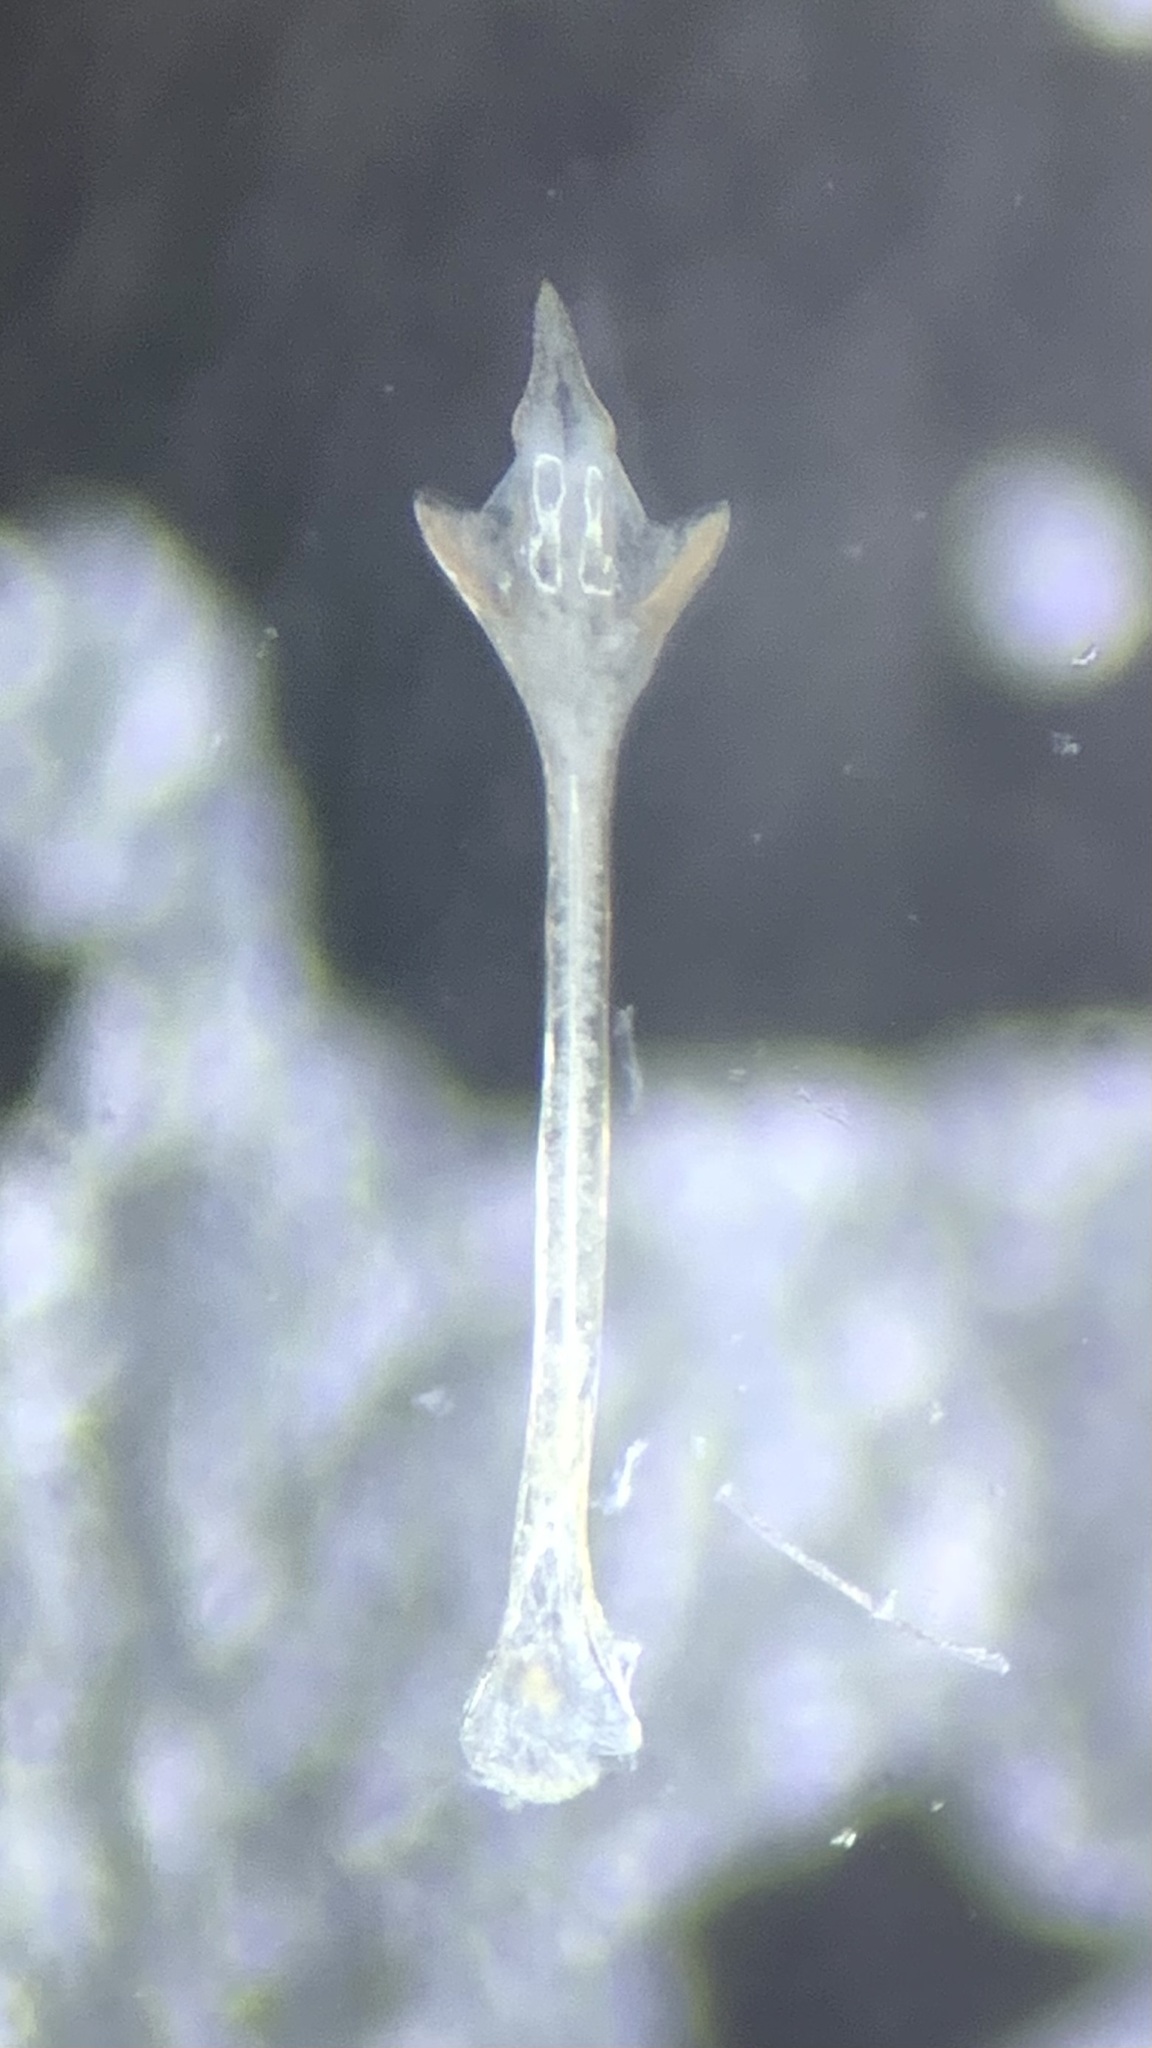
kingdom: Animalia
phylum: Arthropoda
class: Arachnida
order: Opiliones
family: Sclerosomatidae
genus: Nelima
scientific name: Nelima doriae
